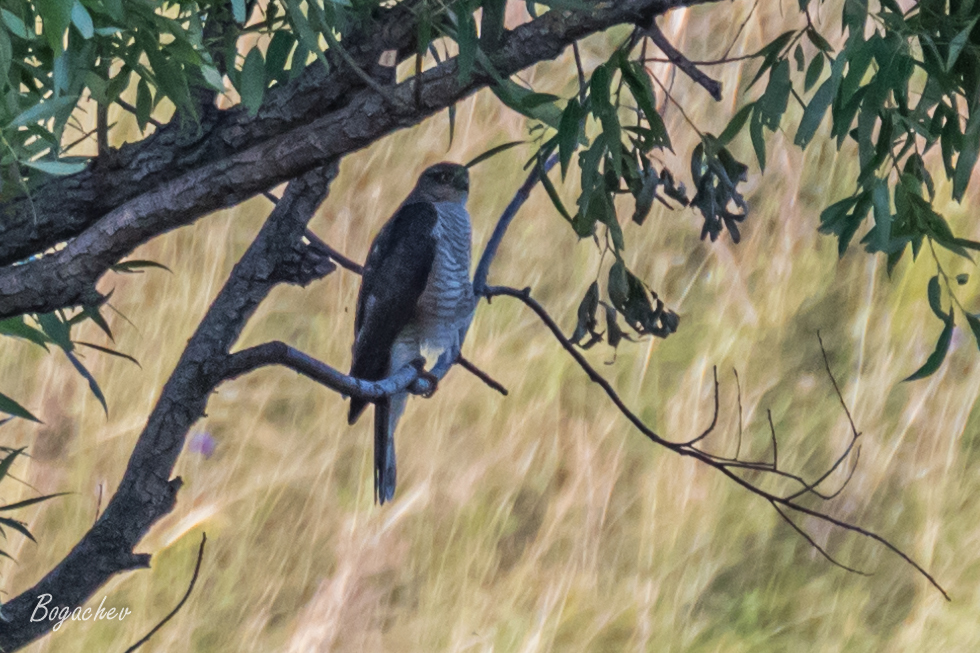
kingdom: Animalia
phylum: Chordata
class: Aves
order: Accipitriformes
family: Accipitridae
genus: Accipiter
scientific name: Accipiter nisus
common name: Eurasian sparrowhawk
